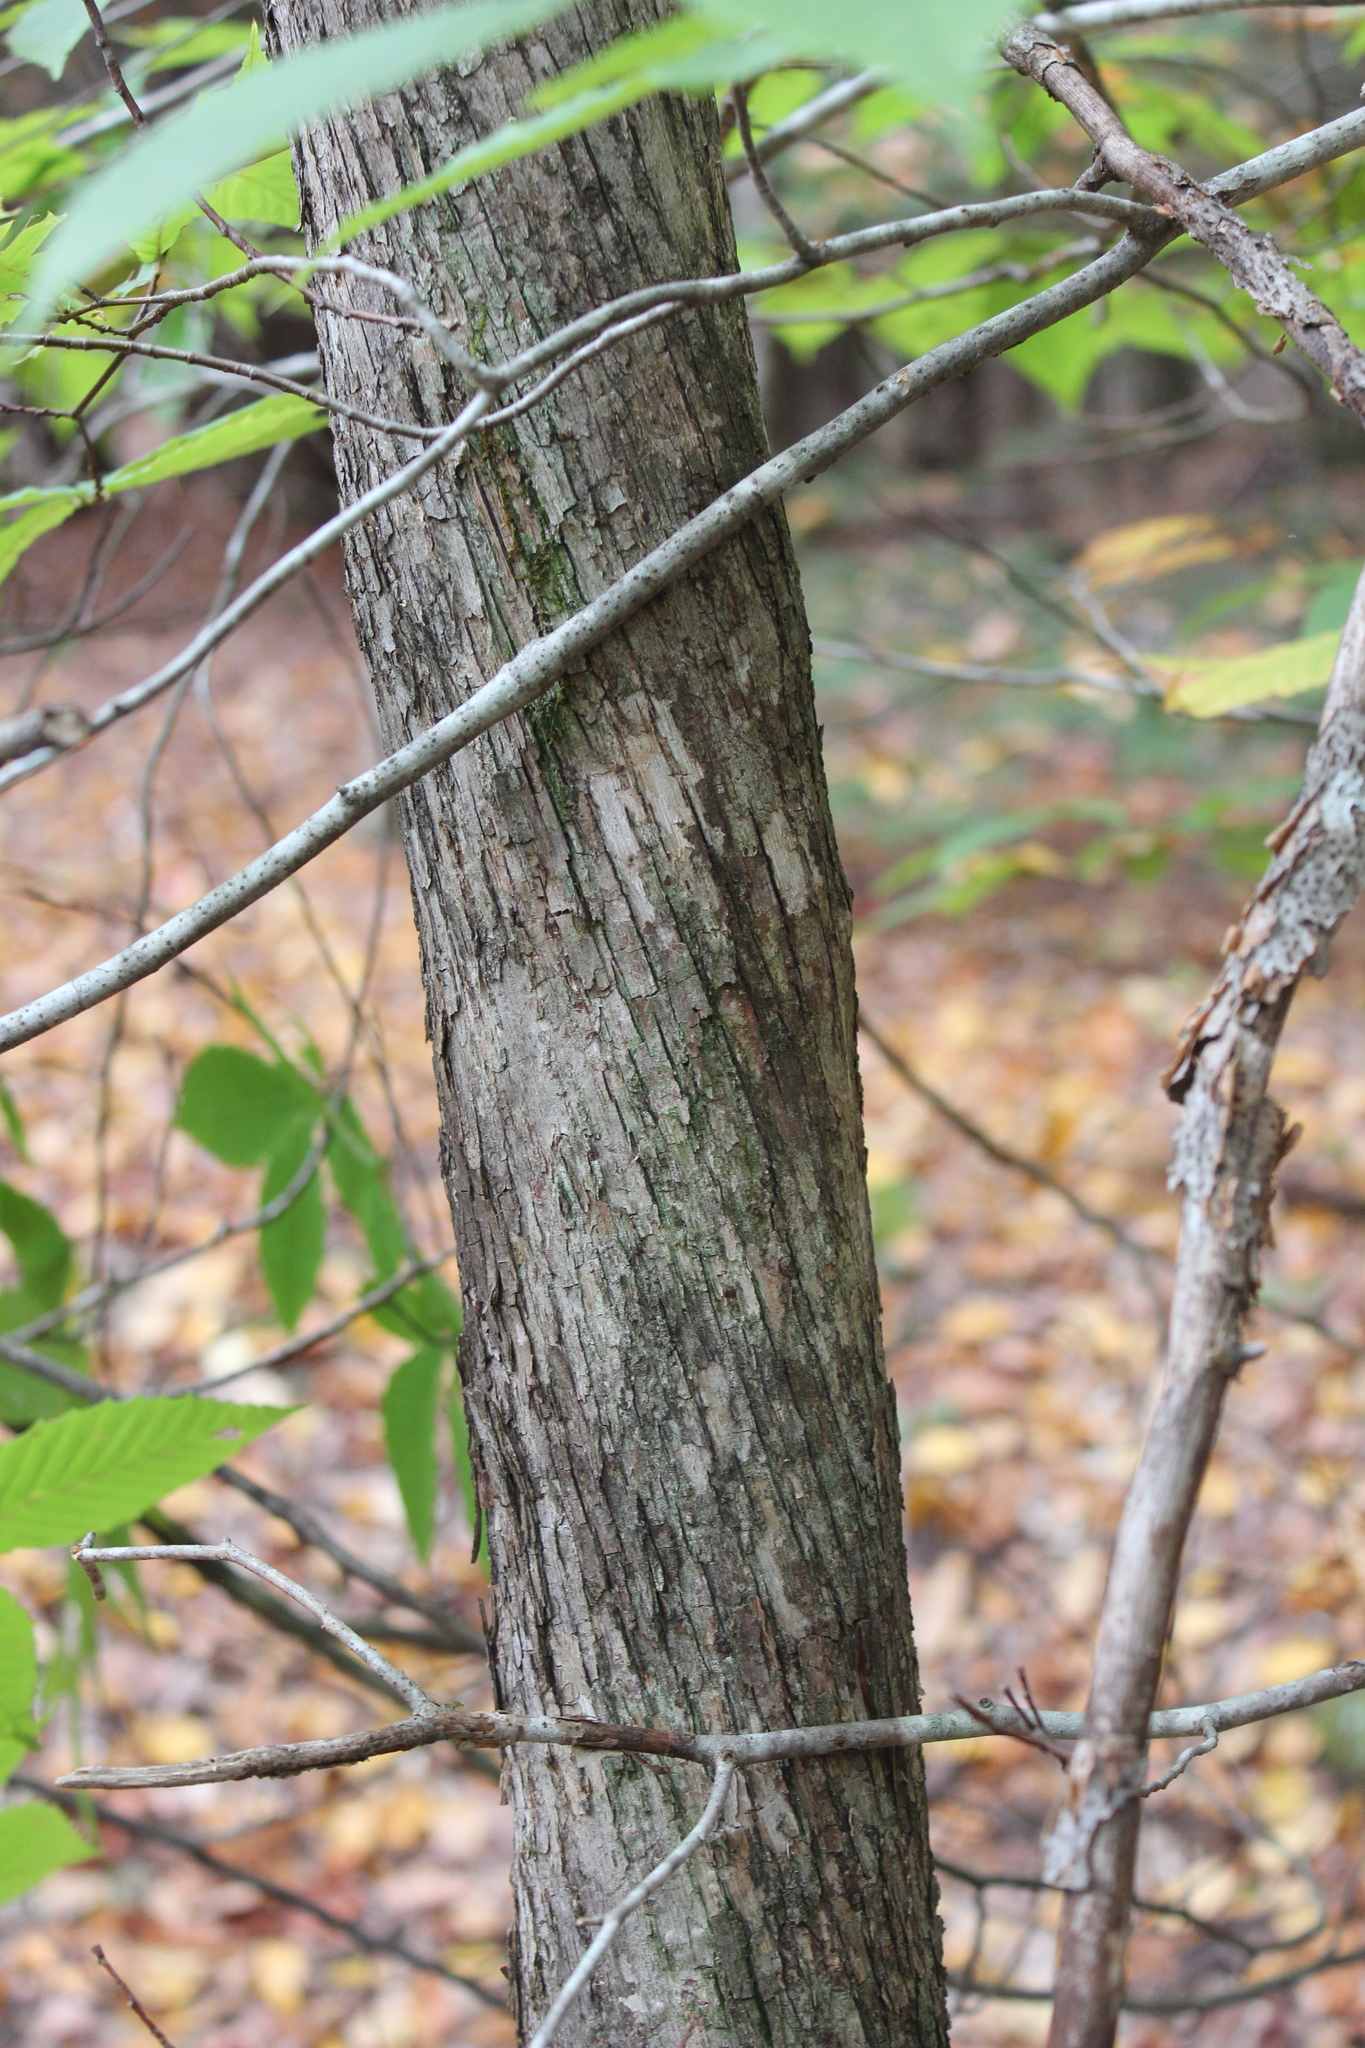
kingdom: Plantae
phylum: Tracheophyta
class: Magnoliopsida
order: Fagales
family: Betulaceae
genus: Ostrya
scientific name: Ostrya virginiana
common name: Ironwood
